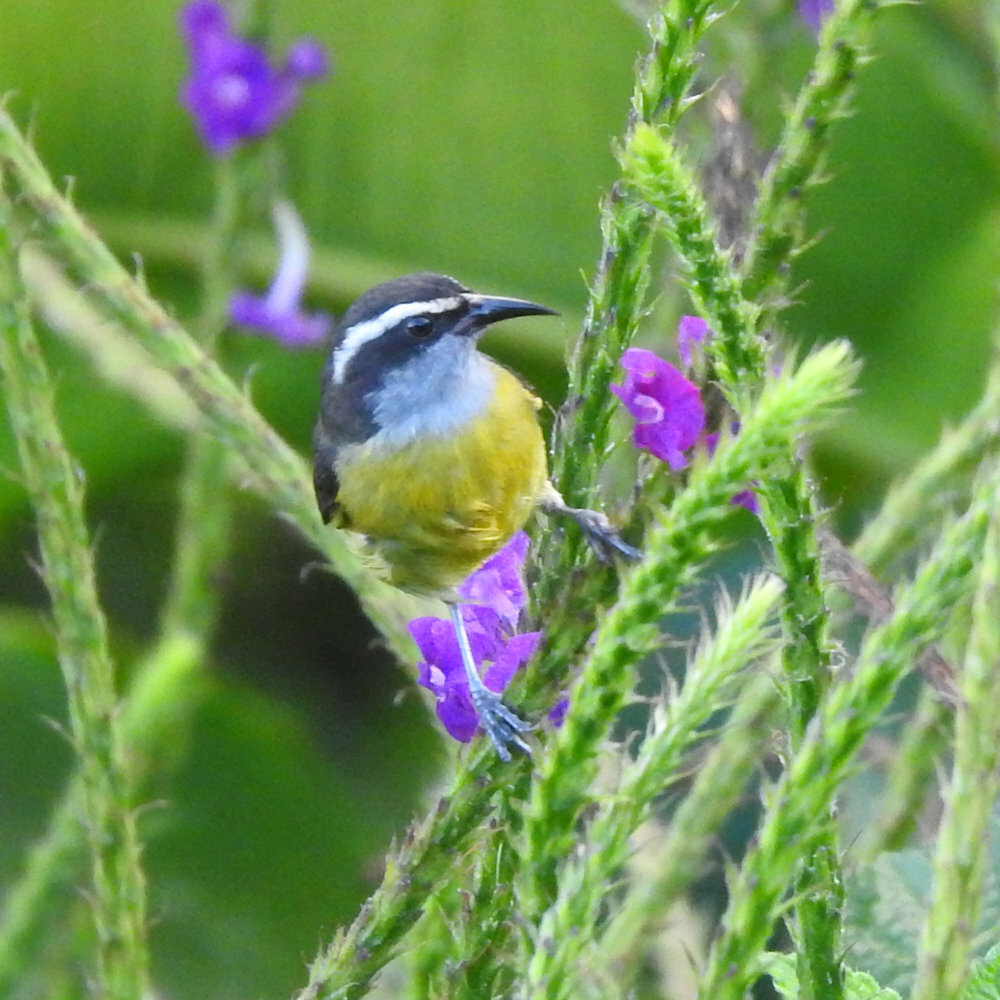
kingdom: Animalia
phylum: Chordata
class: Aves
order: Passeriformes
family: Thraupidae
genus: Coereba
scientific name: Coereba flaveola
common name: Bananaquit
